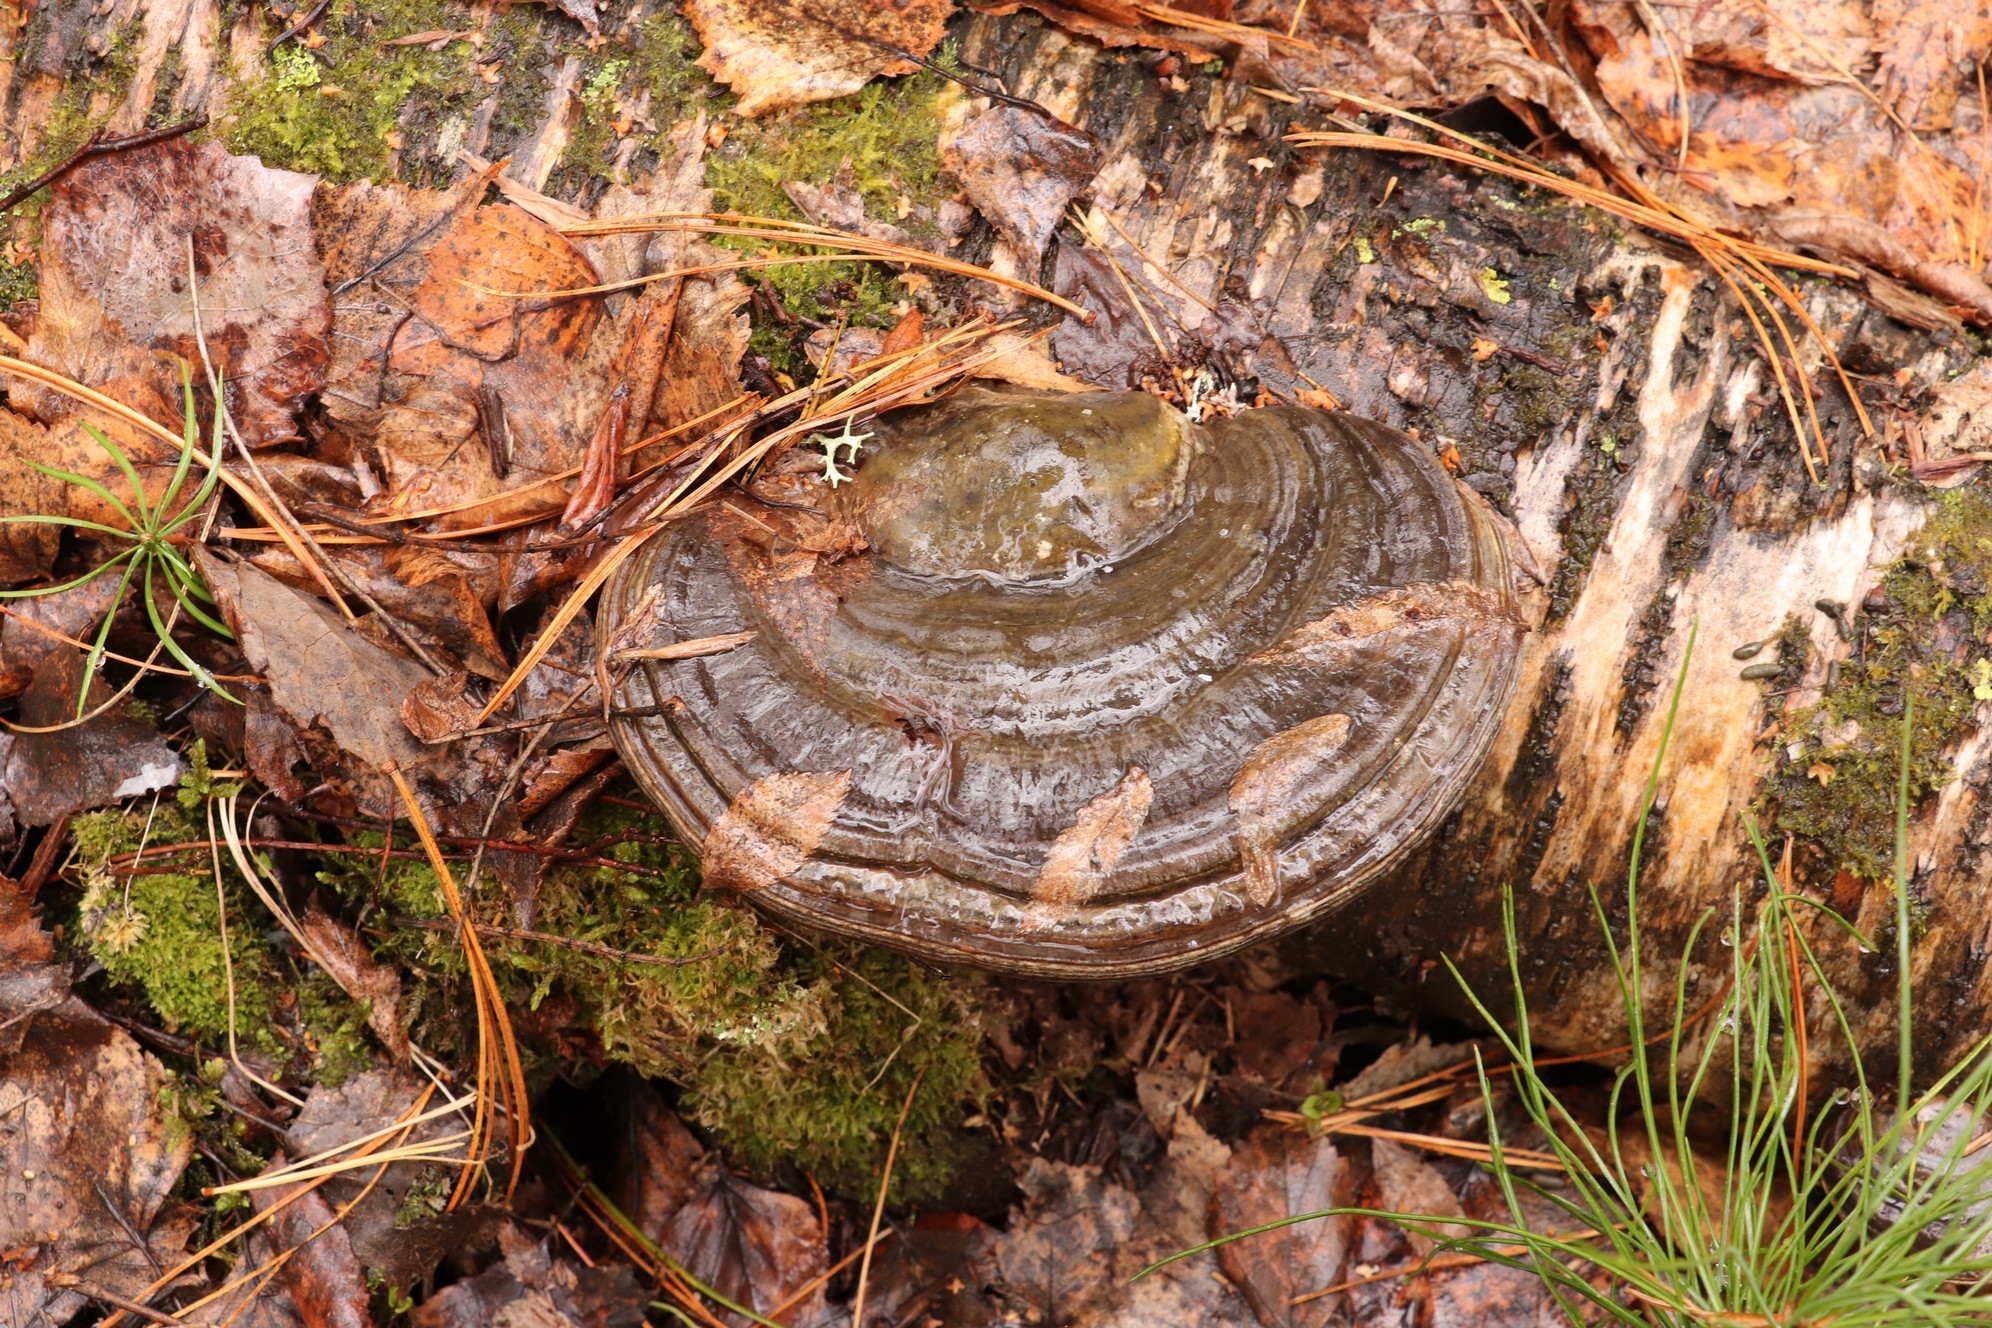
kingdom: Fungi
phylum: Basidiomycota
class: Agaricomycetes
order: Polyporales
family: Polyporaceae
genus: Fomes
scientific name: Fomes fomentarius
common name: Hoof fungus
